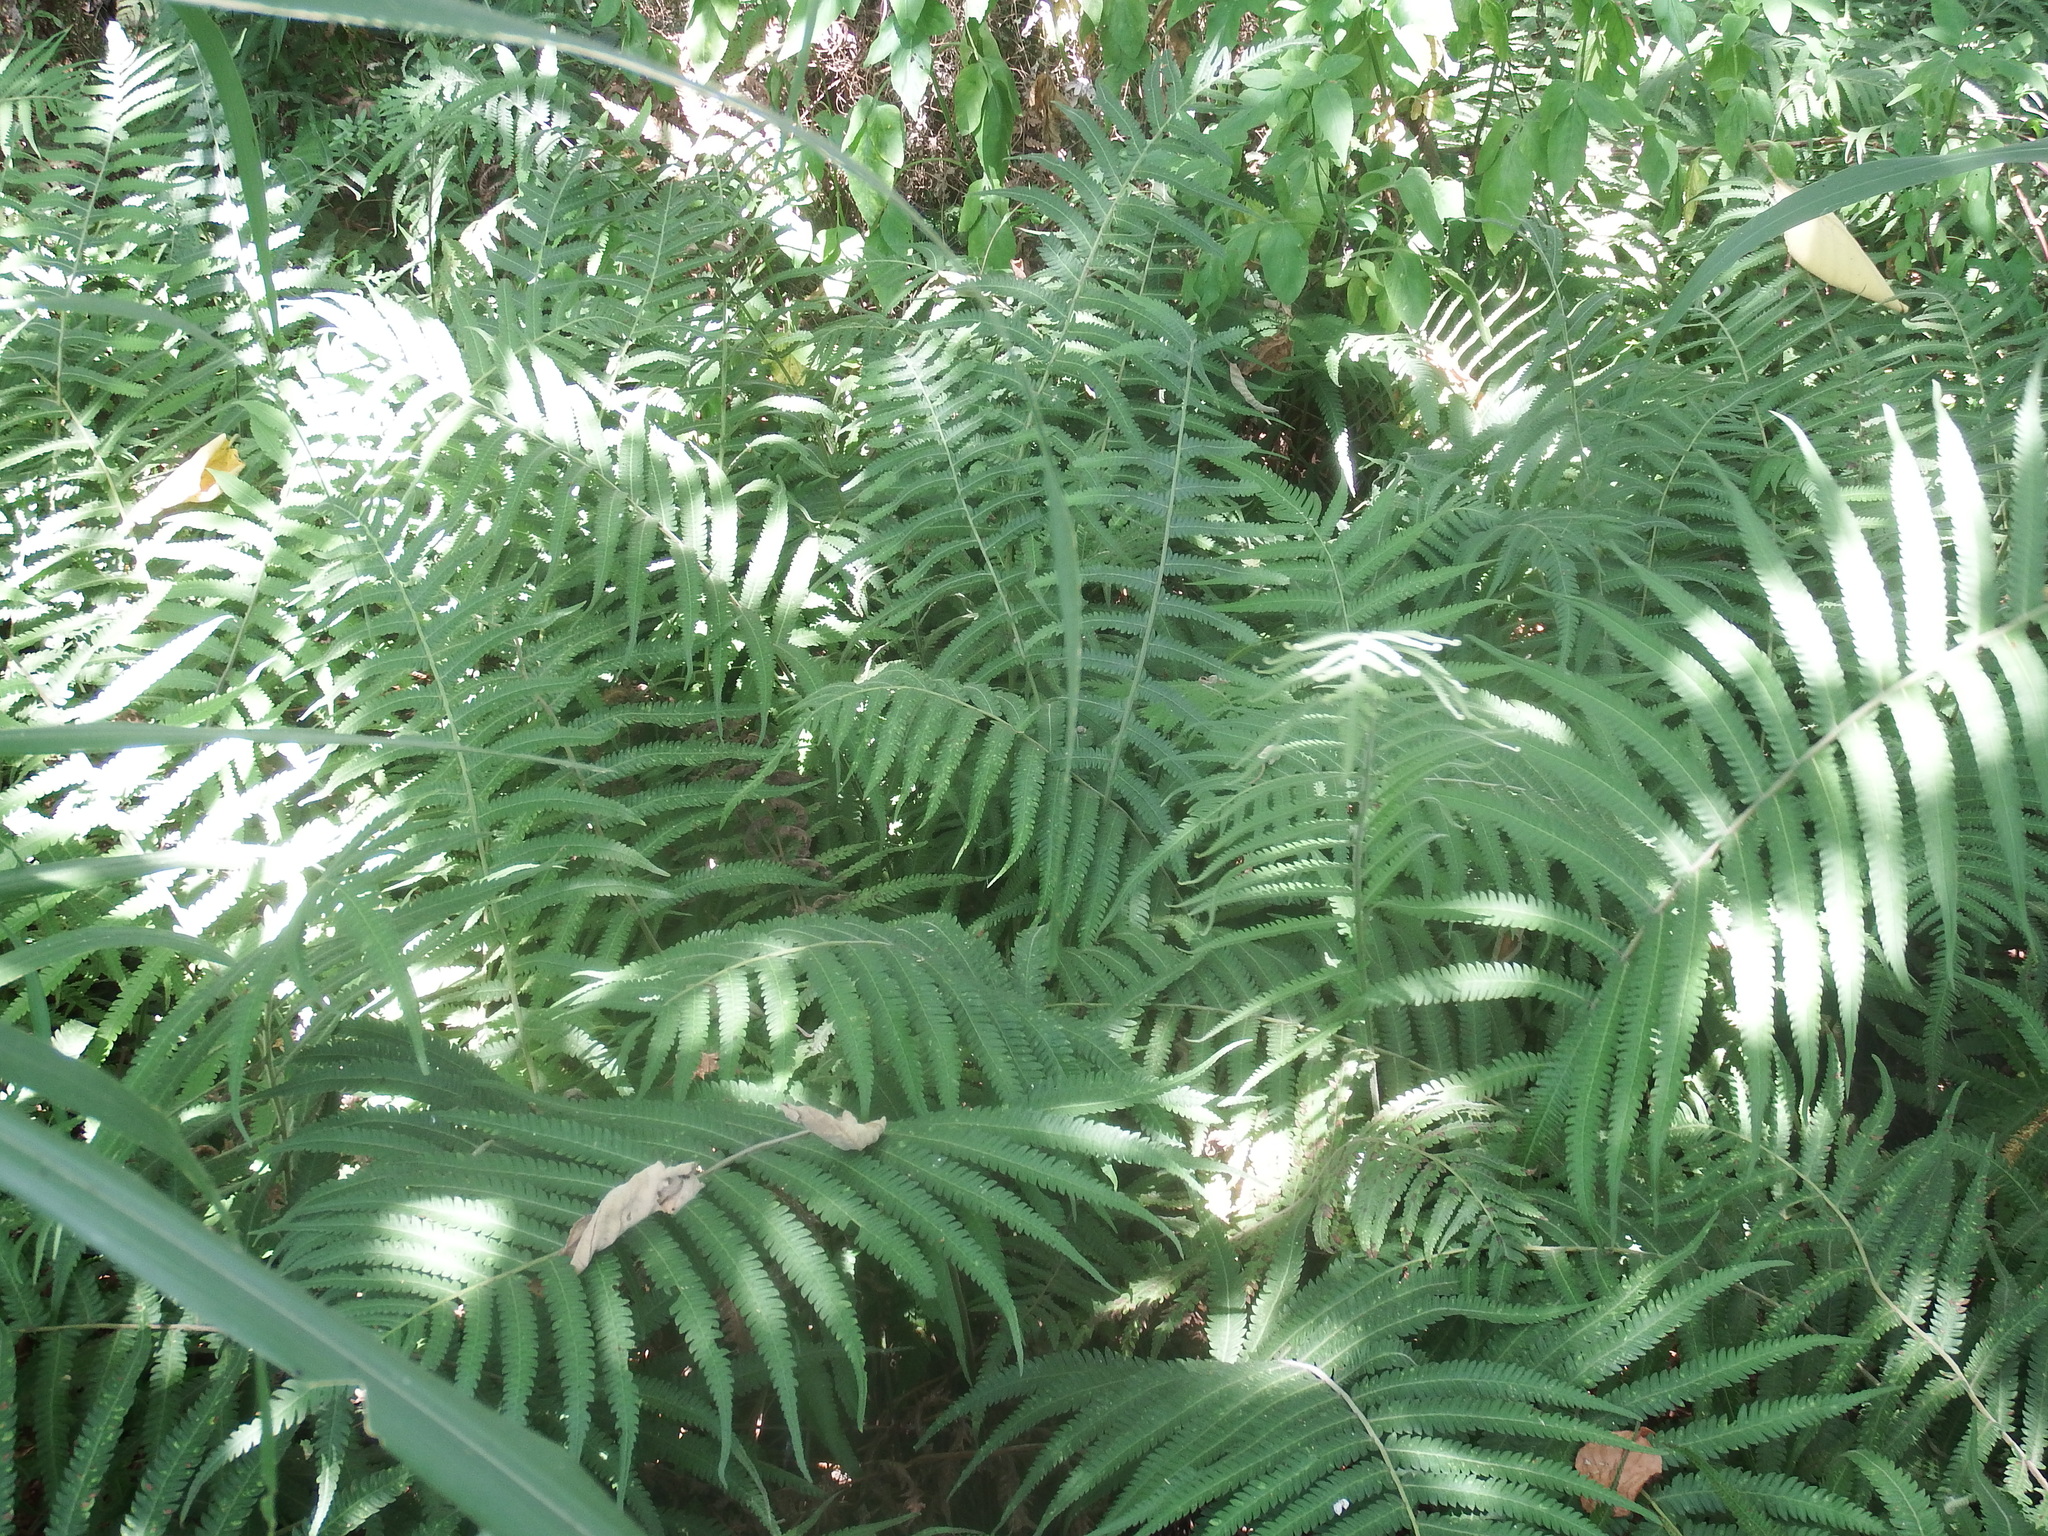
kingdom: Plantae
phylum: Tracheophyta
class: Polypodiopsida
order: Polypodiales
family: Thelypteridaceae
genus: Christella
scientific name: Christella parasitica
